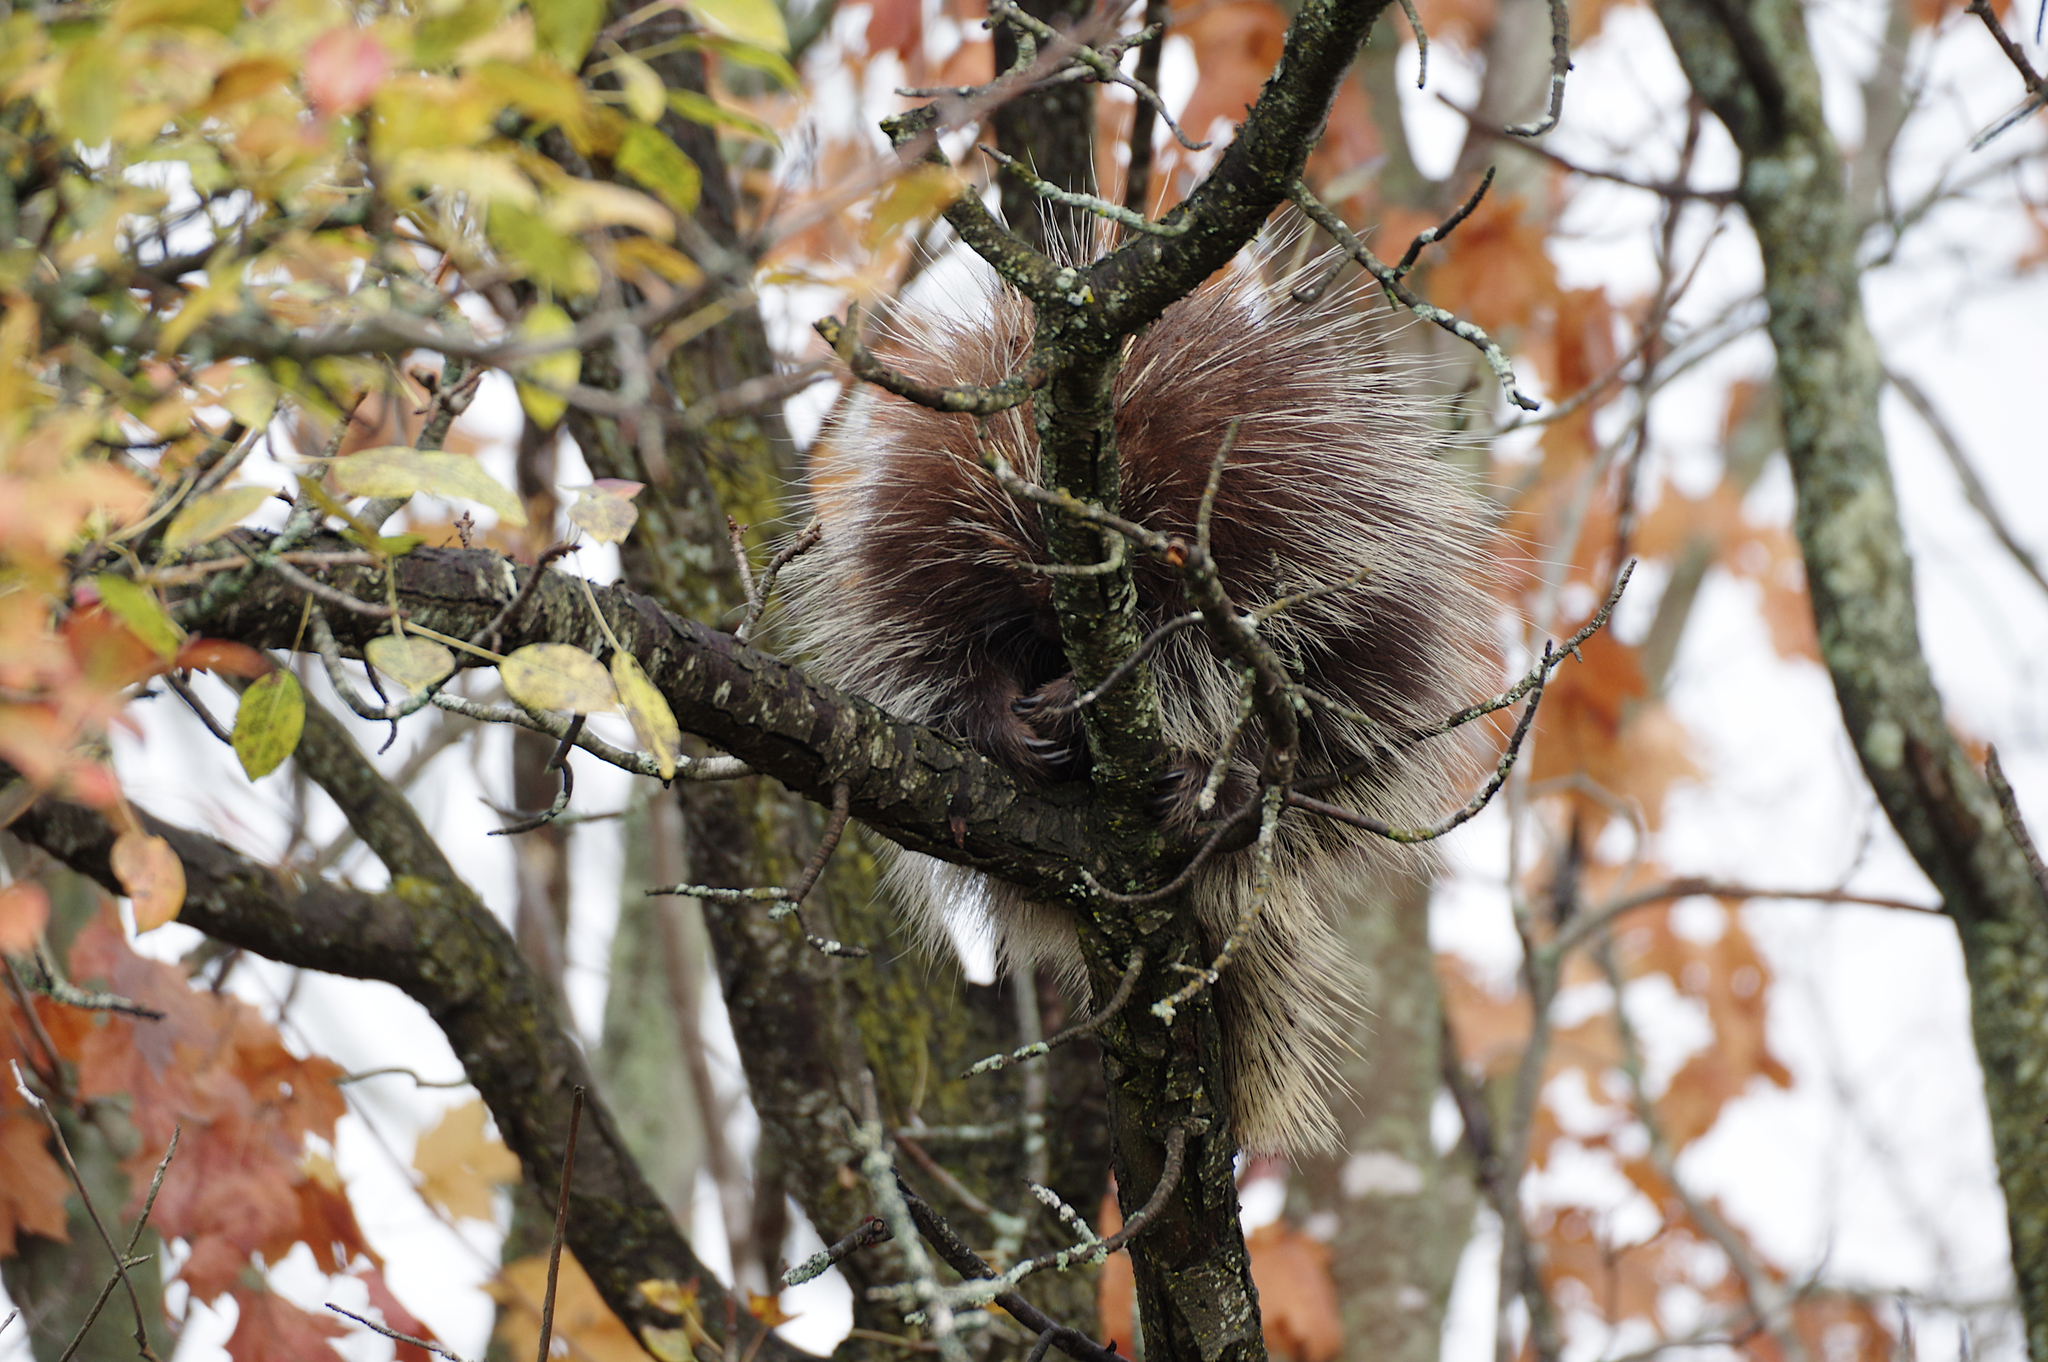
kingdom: Animalia
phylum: Chordata
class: Mammalia
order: Rodentia
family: Erethizontidae
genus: Erethizon
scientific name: Erethizon dorsatus
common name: North american porcupine
